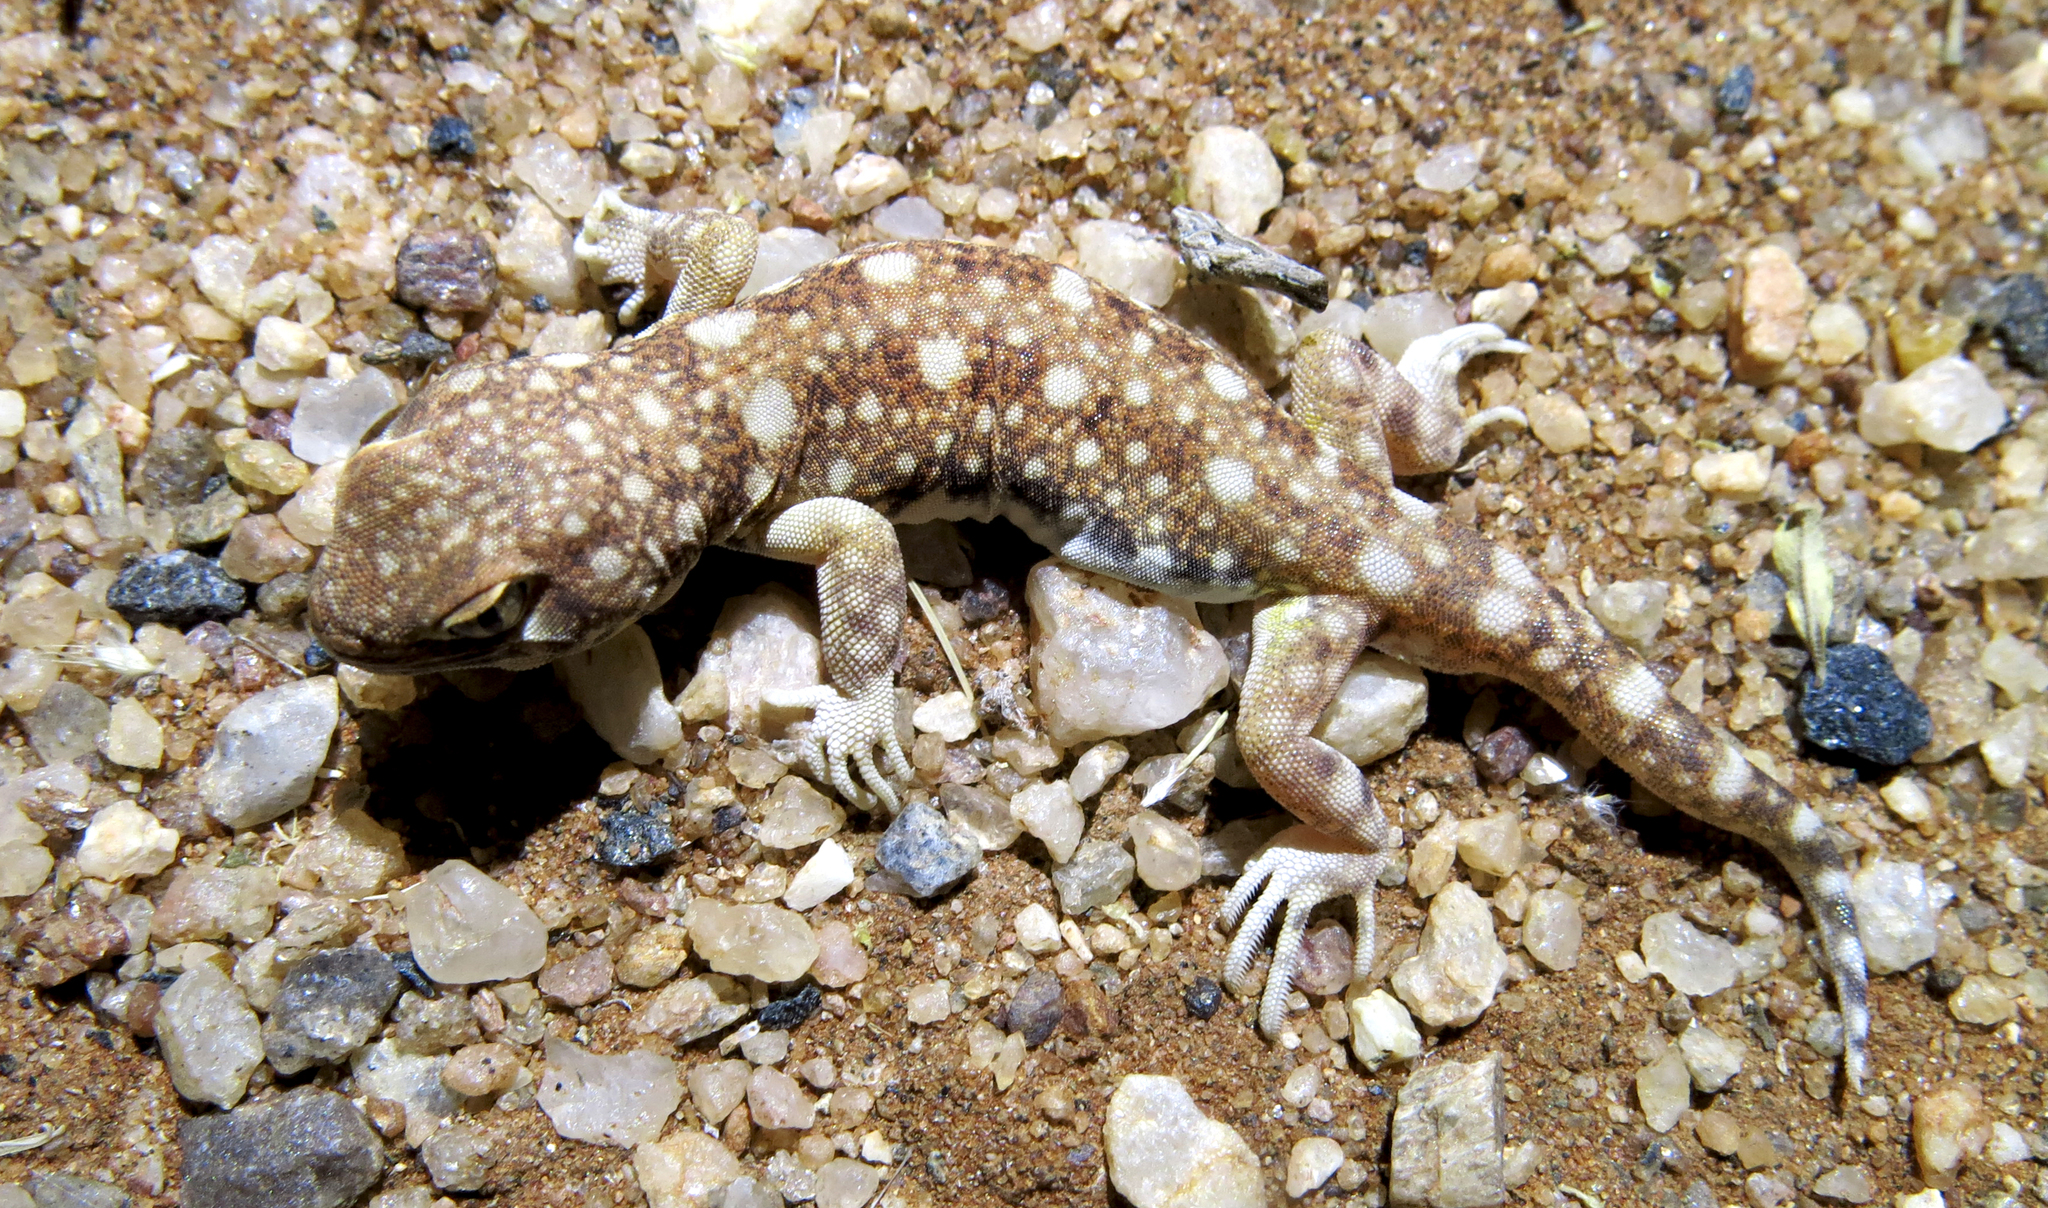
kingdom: Animalia
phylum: Chordata
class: Squamata
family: Gekkonidae
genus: Ptenopus
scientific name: Ptenopus garrulus
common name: Whistling gecko
